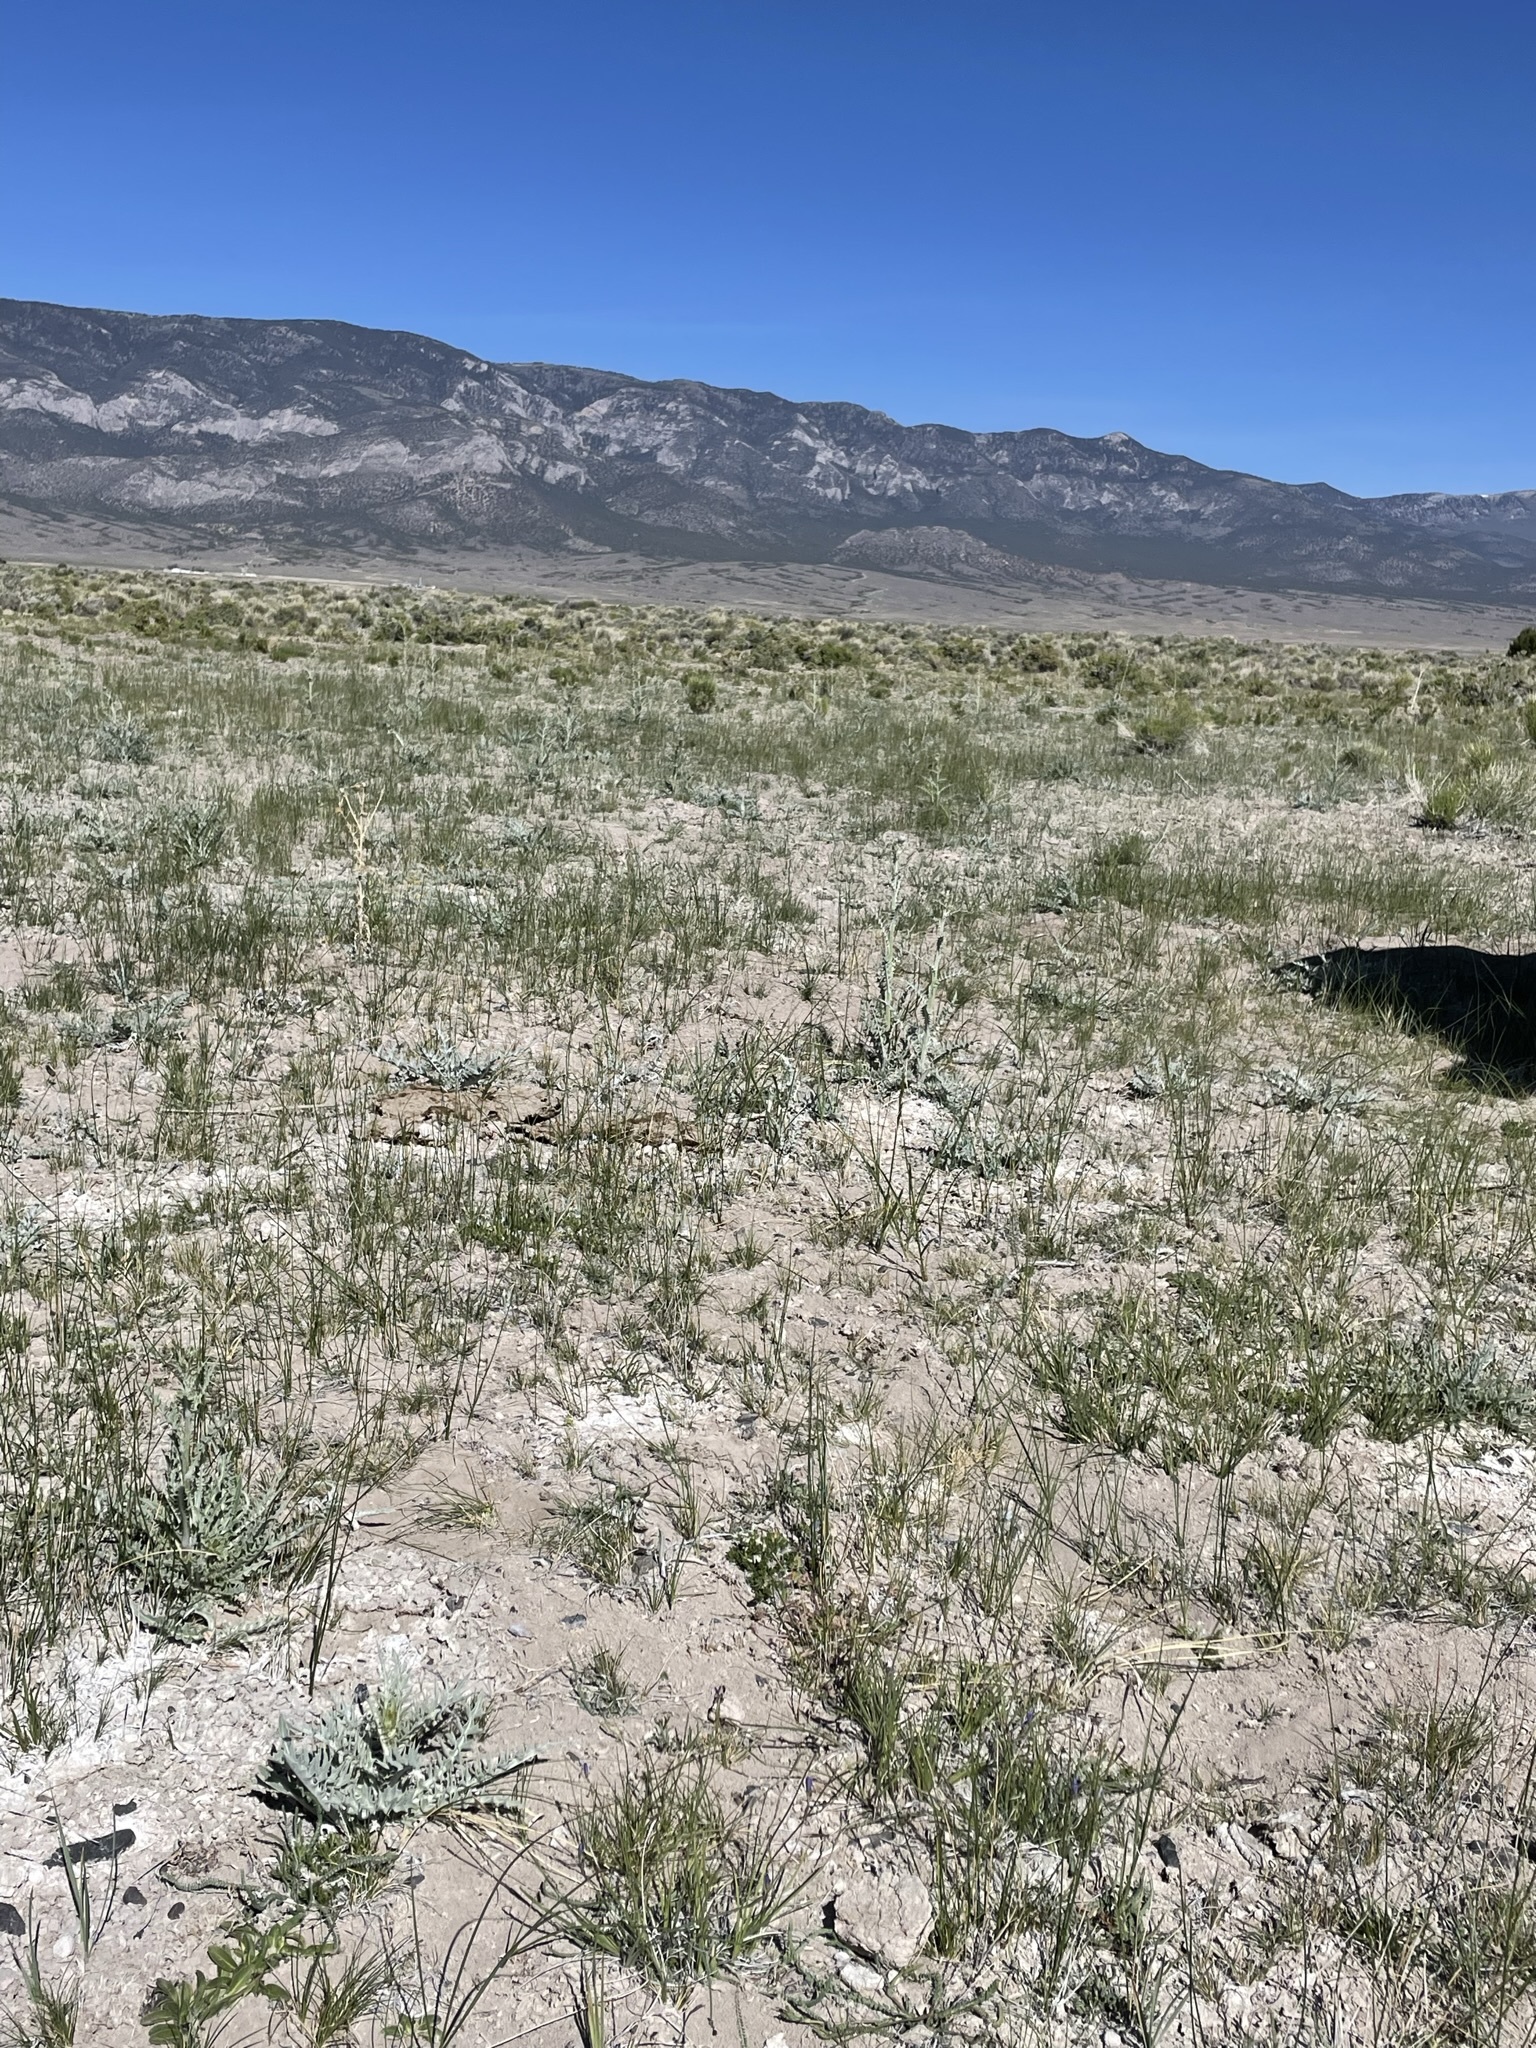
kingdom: Plantae
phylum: Tracheophyta
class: Magnoliopsida
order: Ericales
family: Polemoniaceae
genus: Phlox
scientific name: Phlox kelseyi
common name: Marsh phlox
